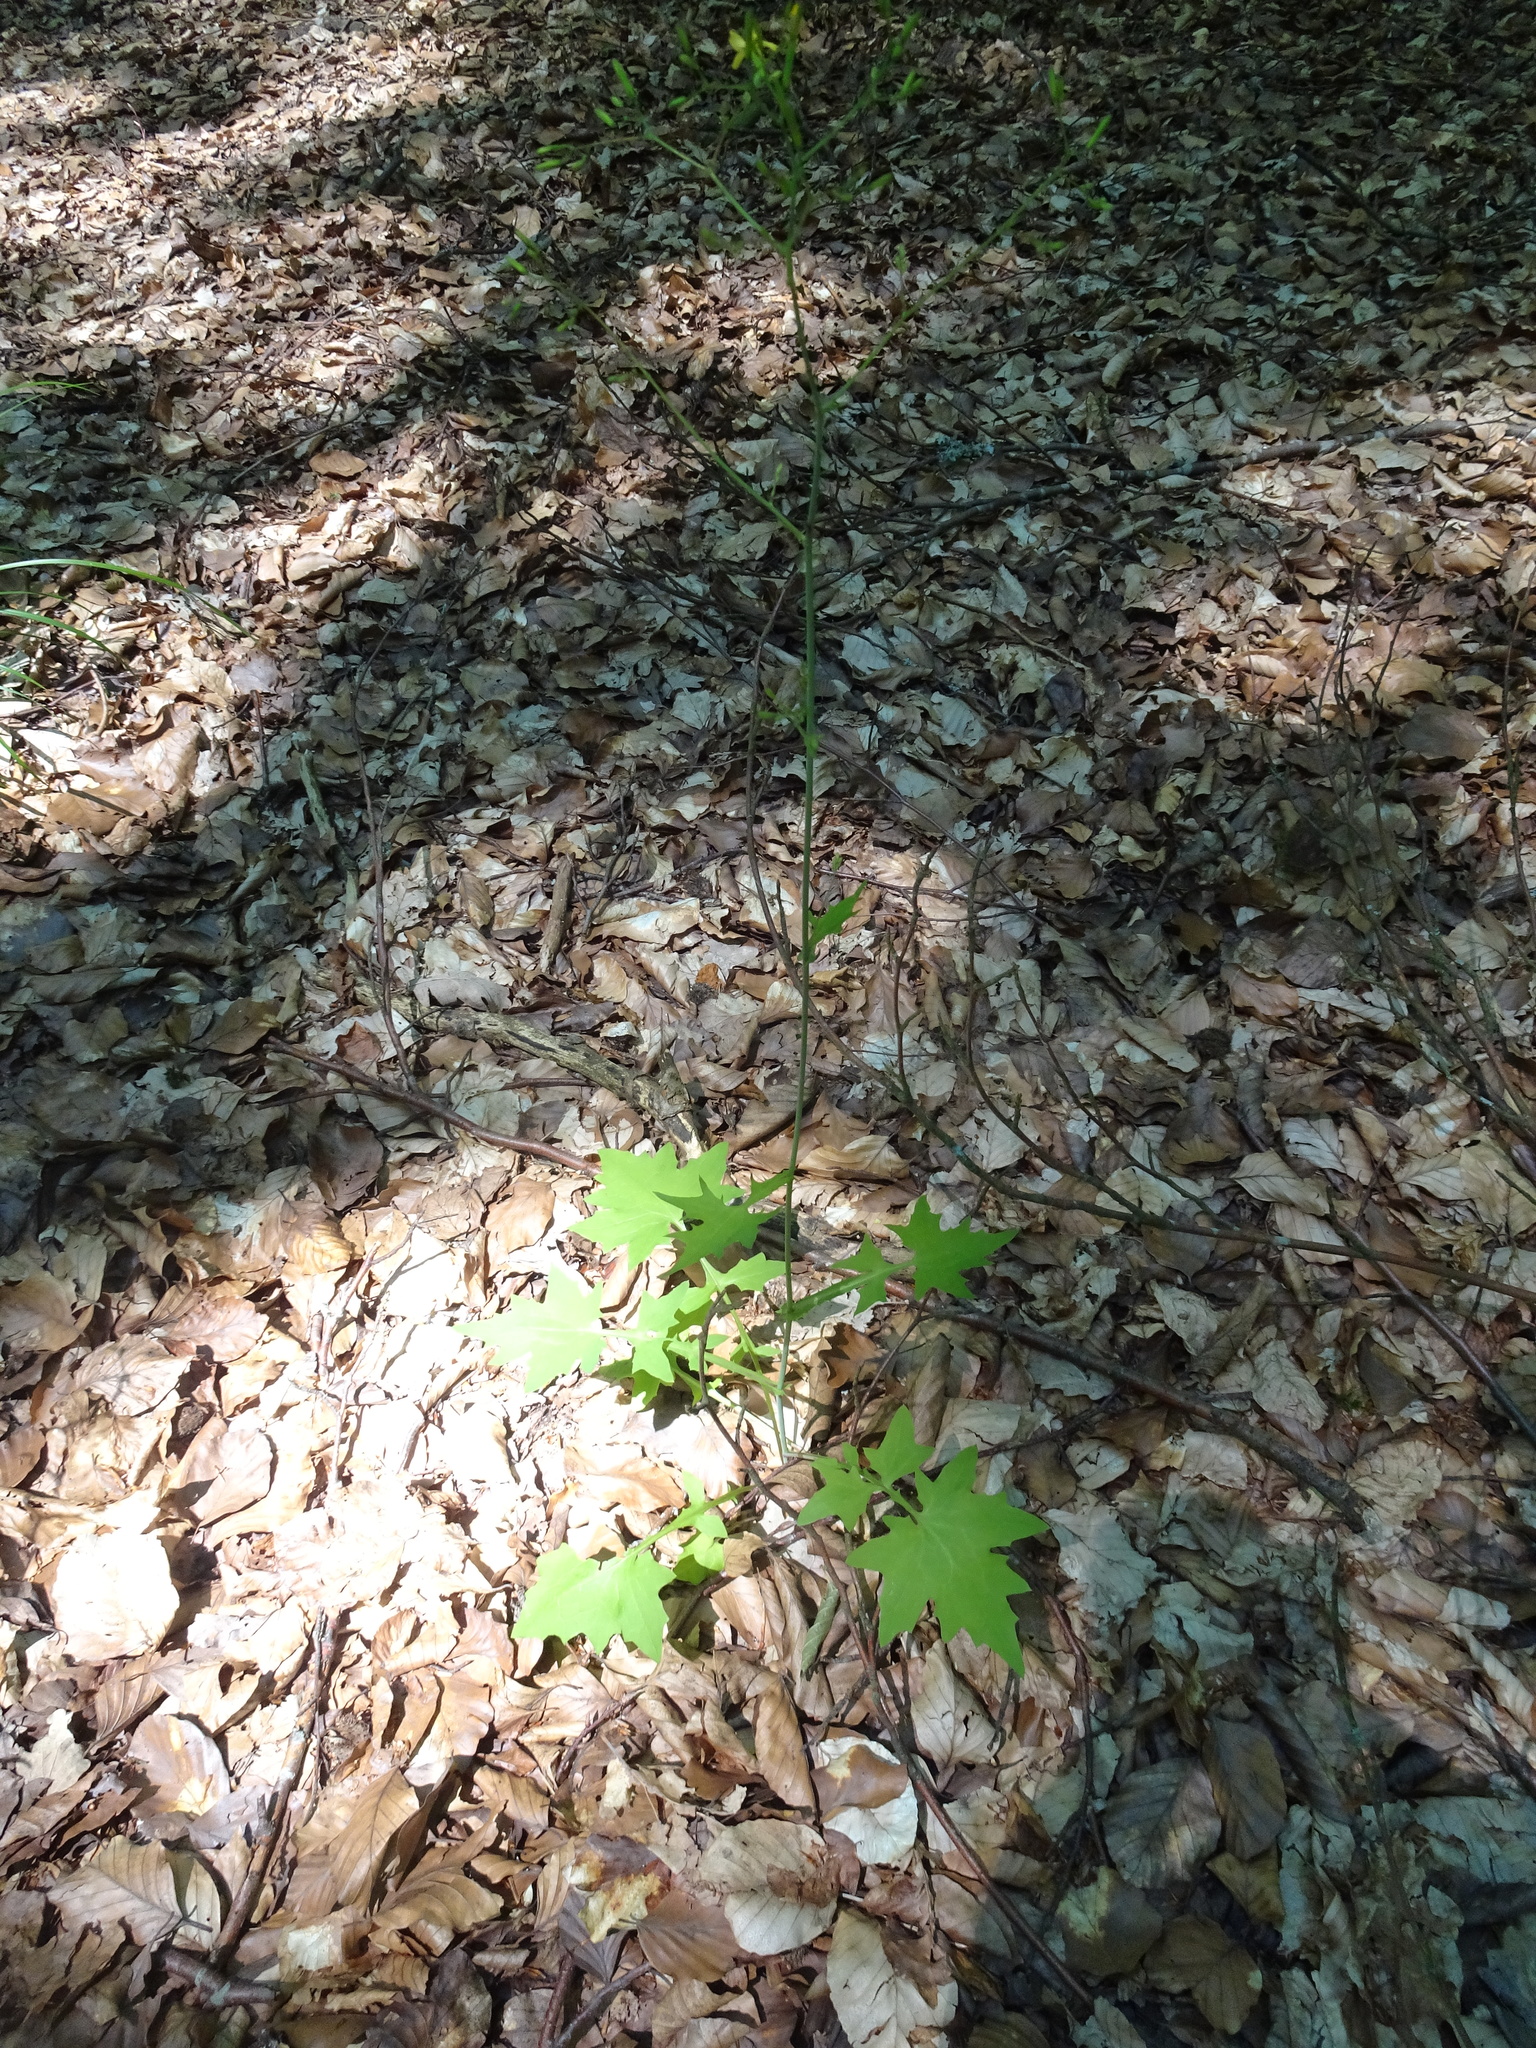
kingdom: Plantae
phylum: Tracheophyta
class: Magnoliopsida
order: Asterales
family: Asteraceae
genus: Mycelis
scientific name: Mycelis muralis
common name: Wall lettuce
